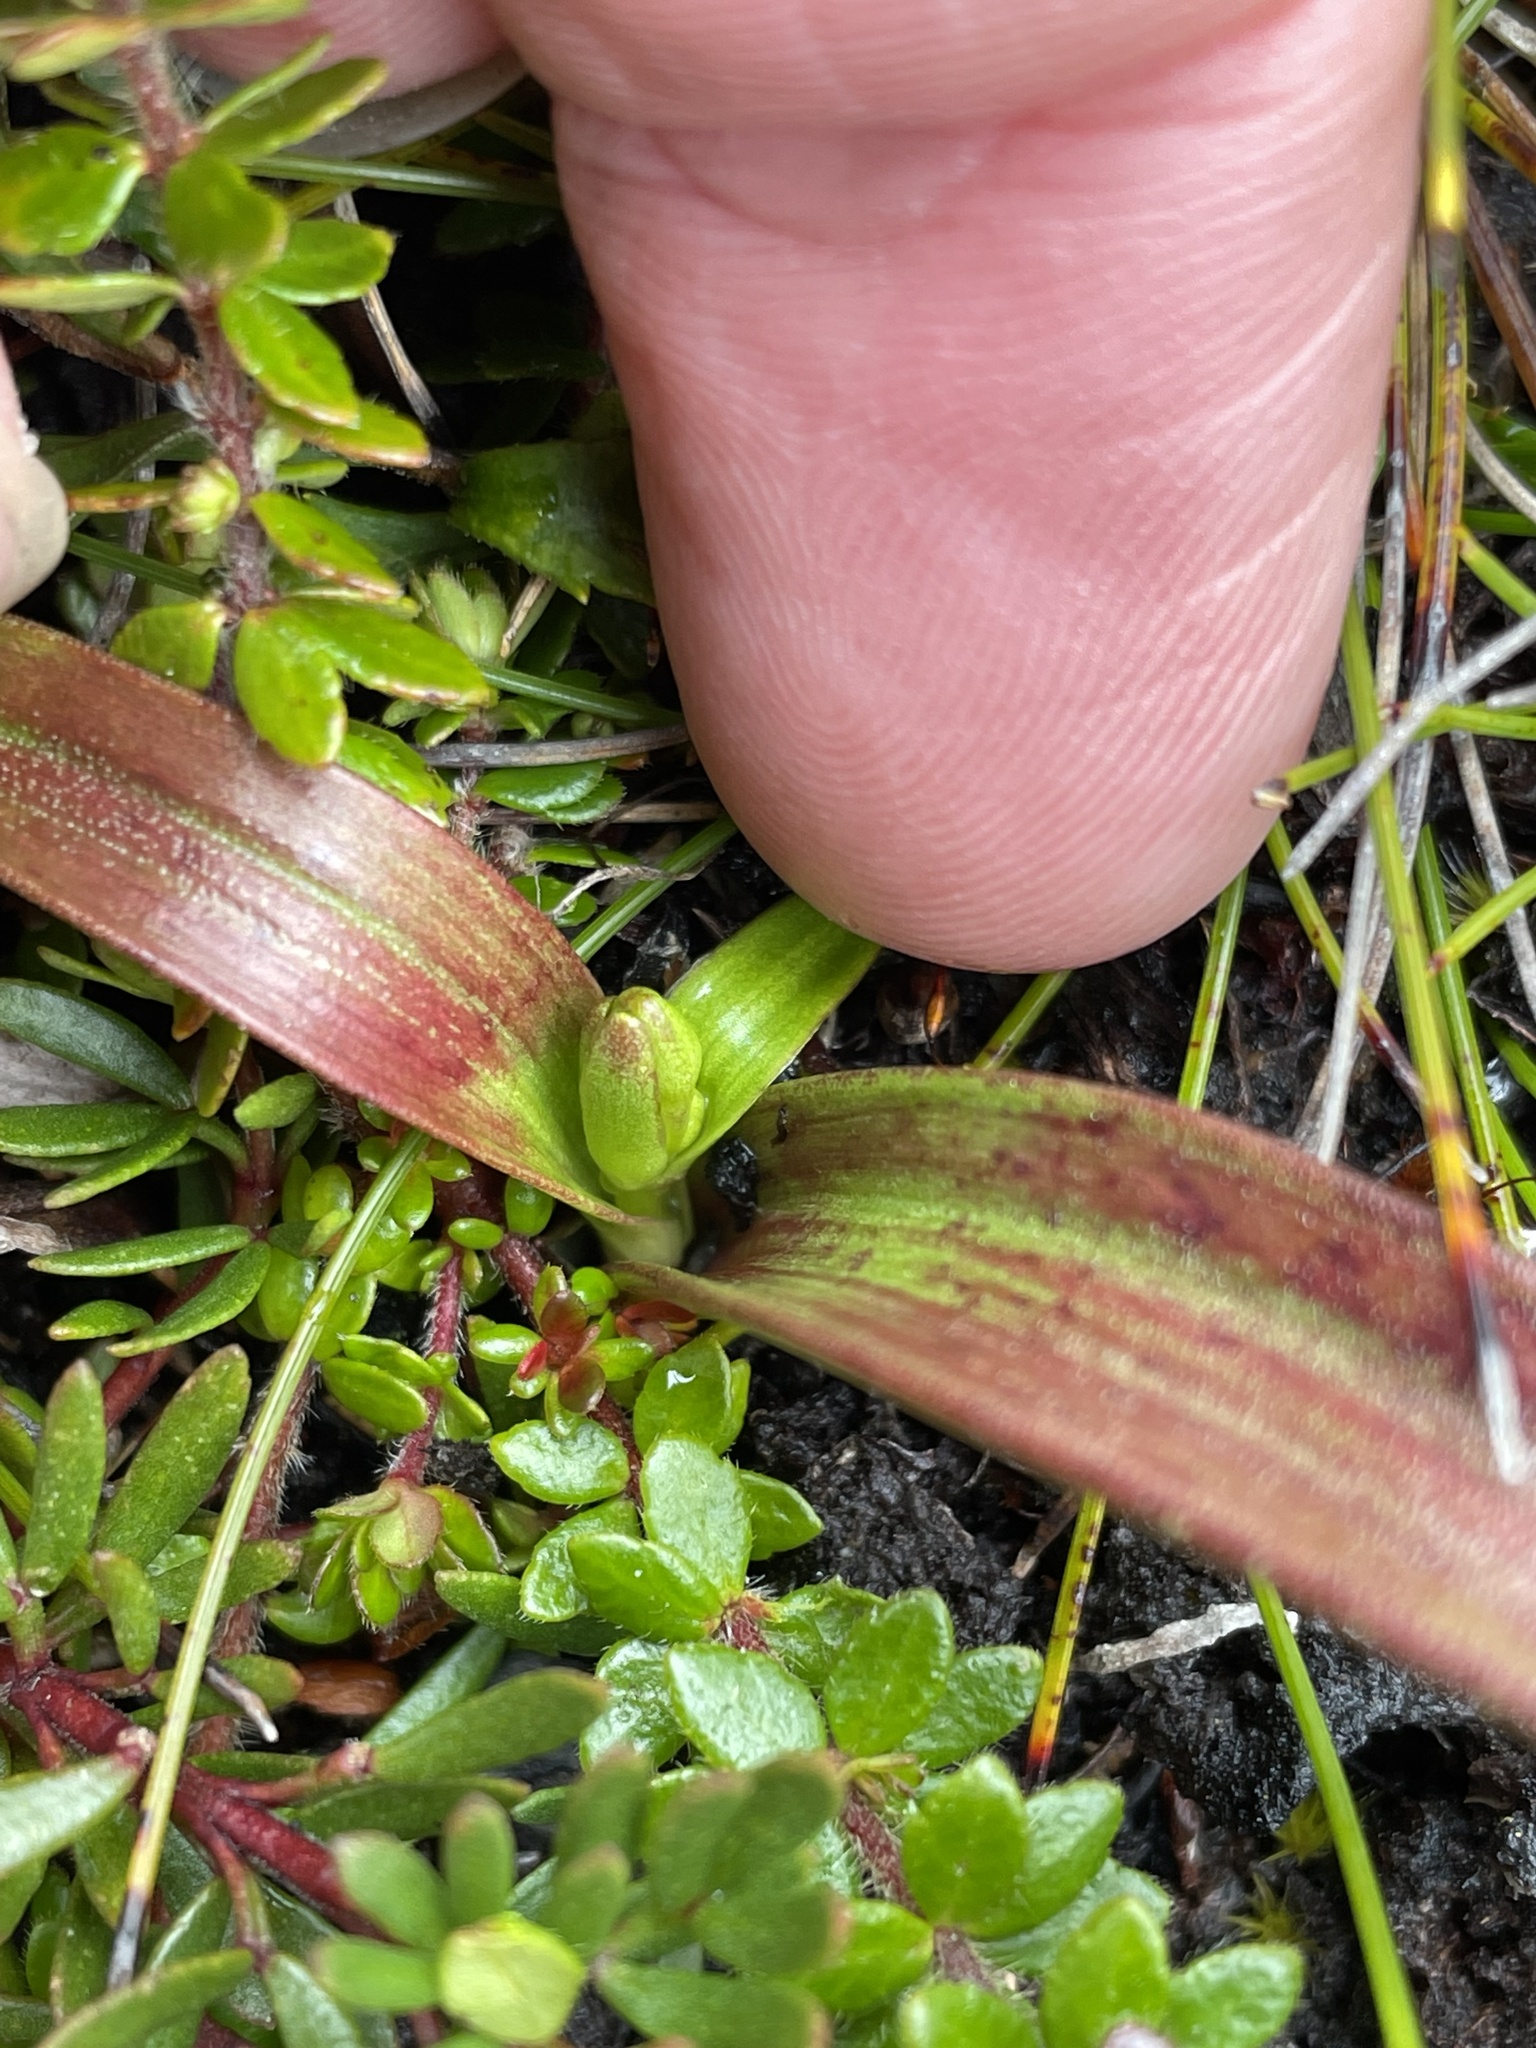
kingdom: Plantae
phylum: Tracheophyta
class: Liliopsida
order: Liliales
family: Campynemataceae
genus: Campynema
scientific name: Campynema lineare
